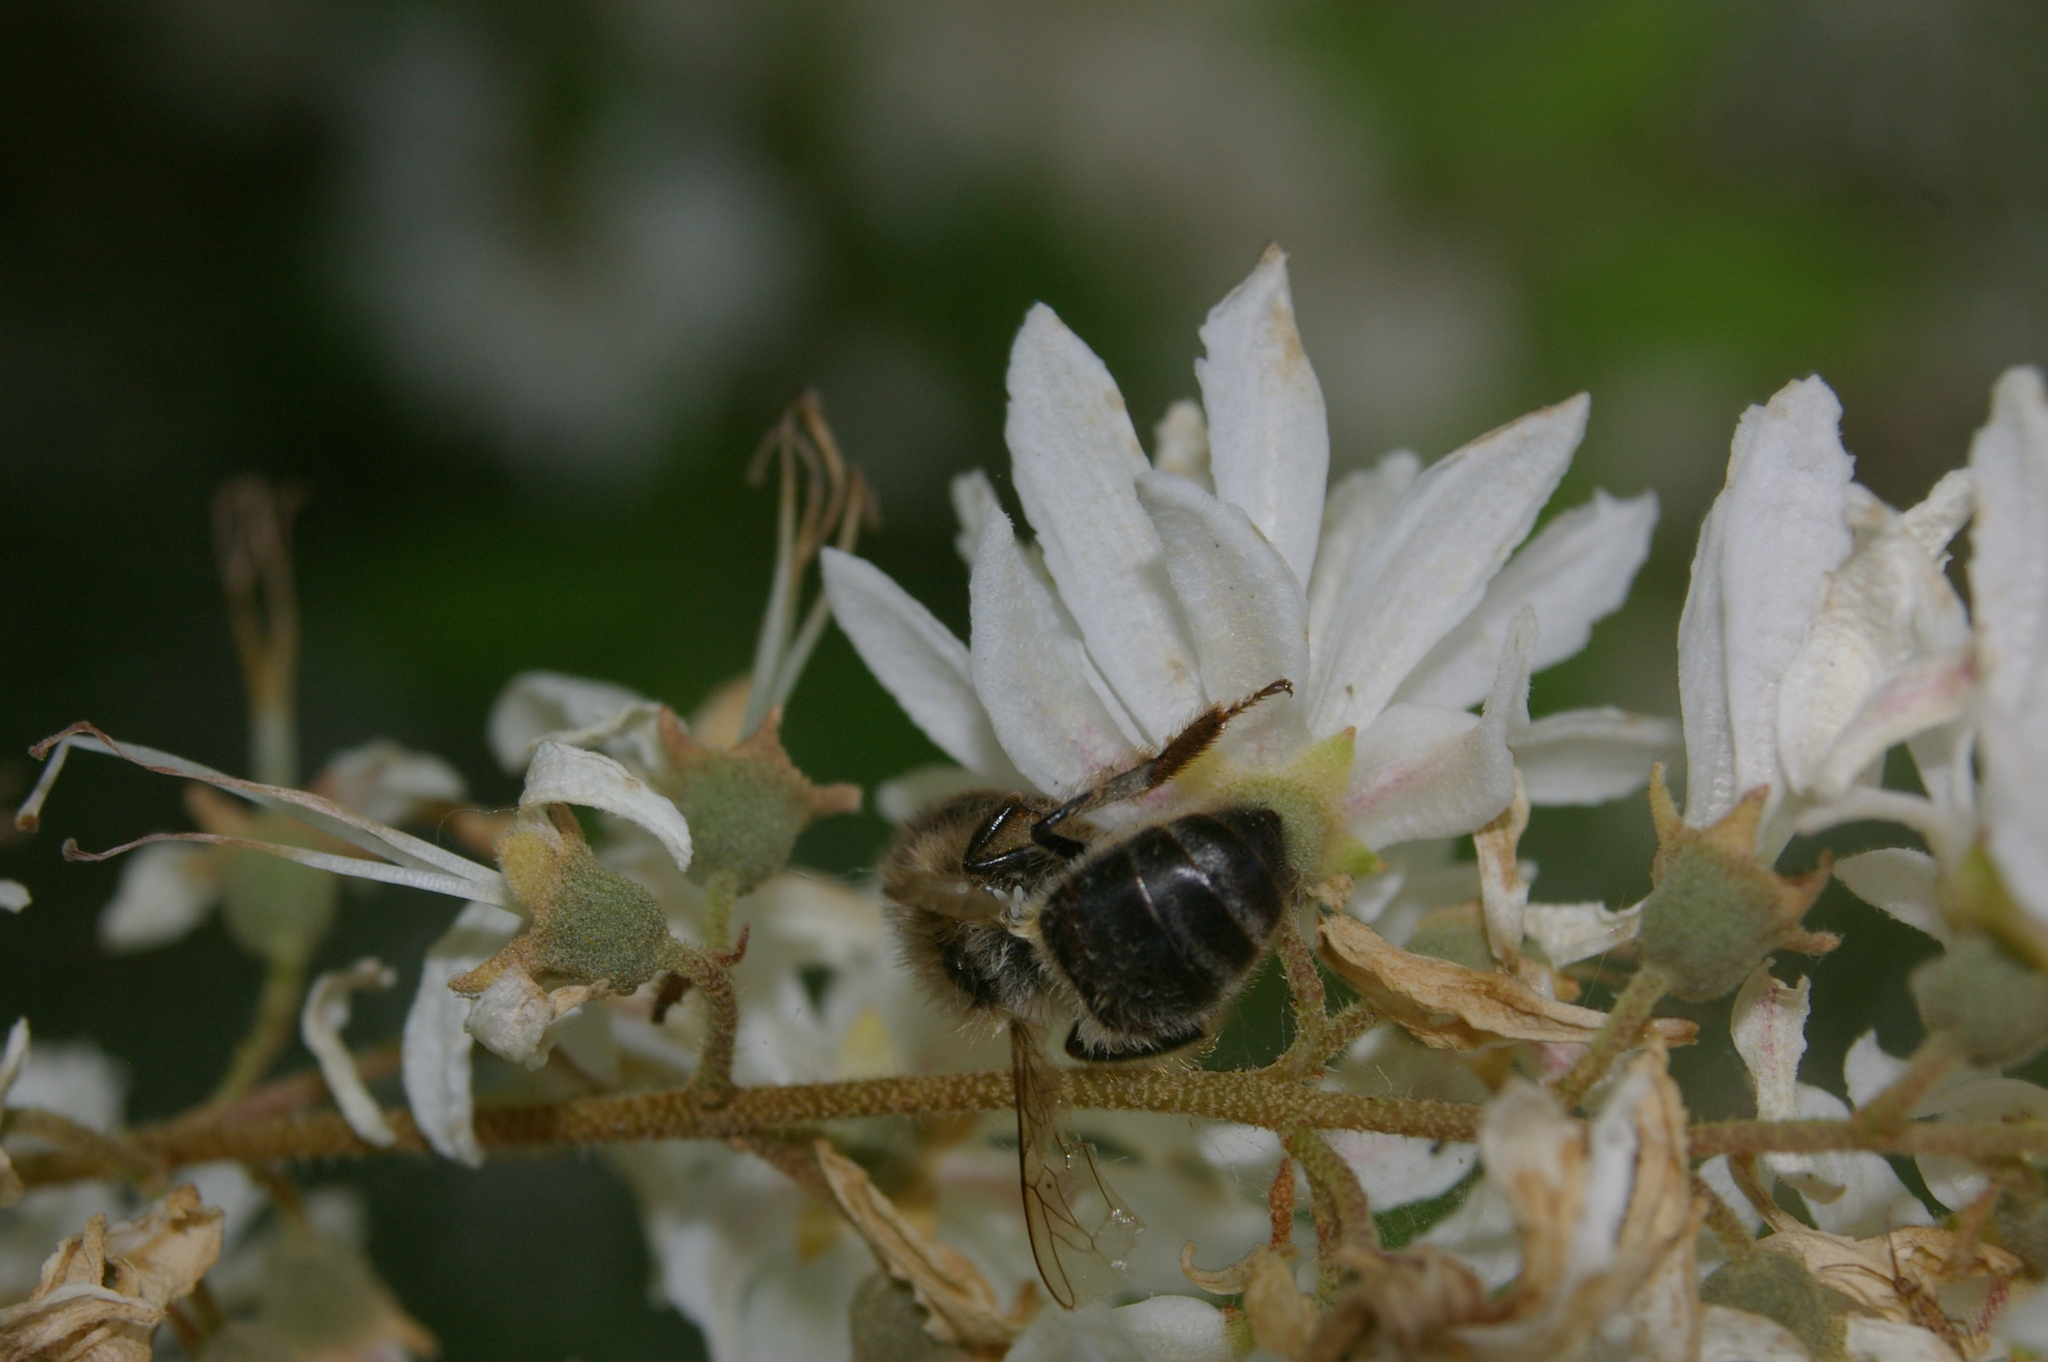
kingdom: Animalia
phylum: Arthropoda
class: Insecta
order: Hymenoptera
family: Apidae
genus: Apis
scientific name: Apis mellifera
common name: Honey bee
